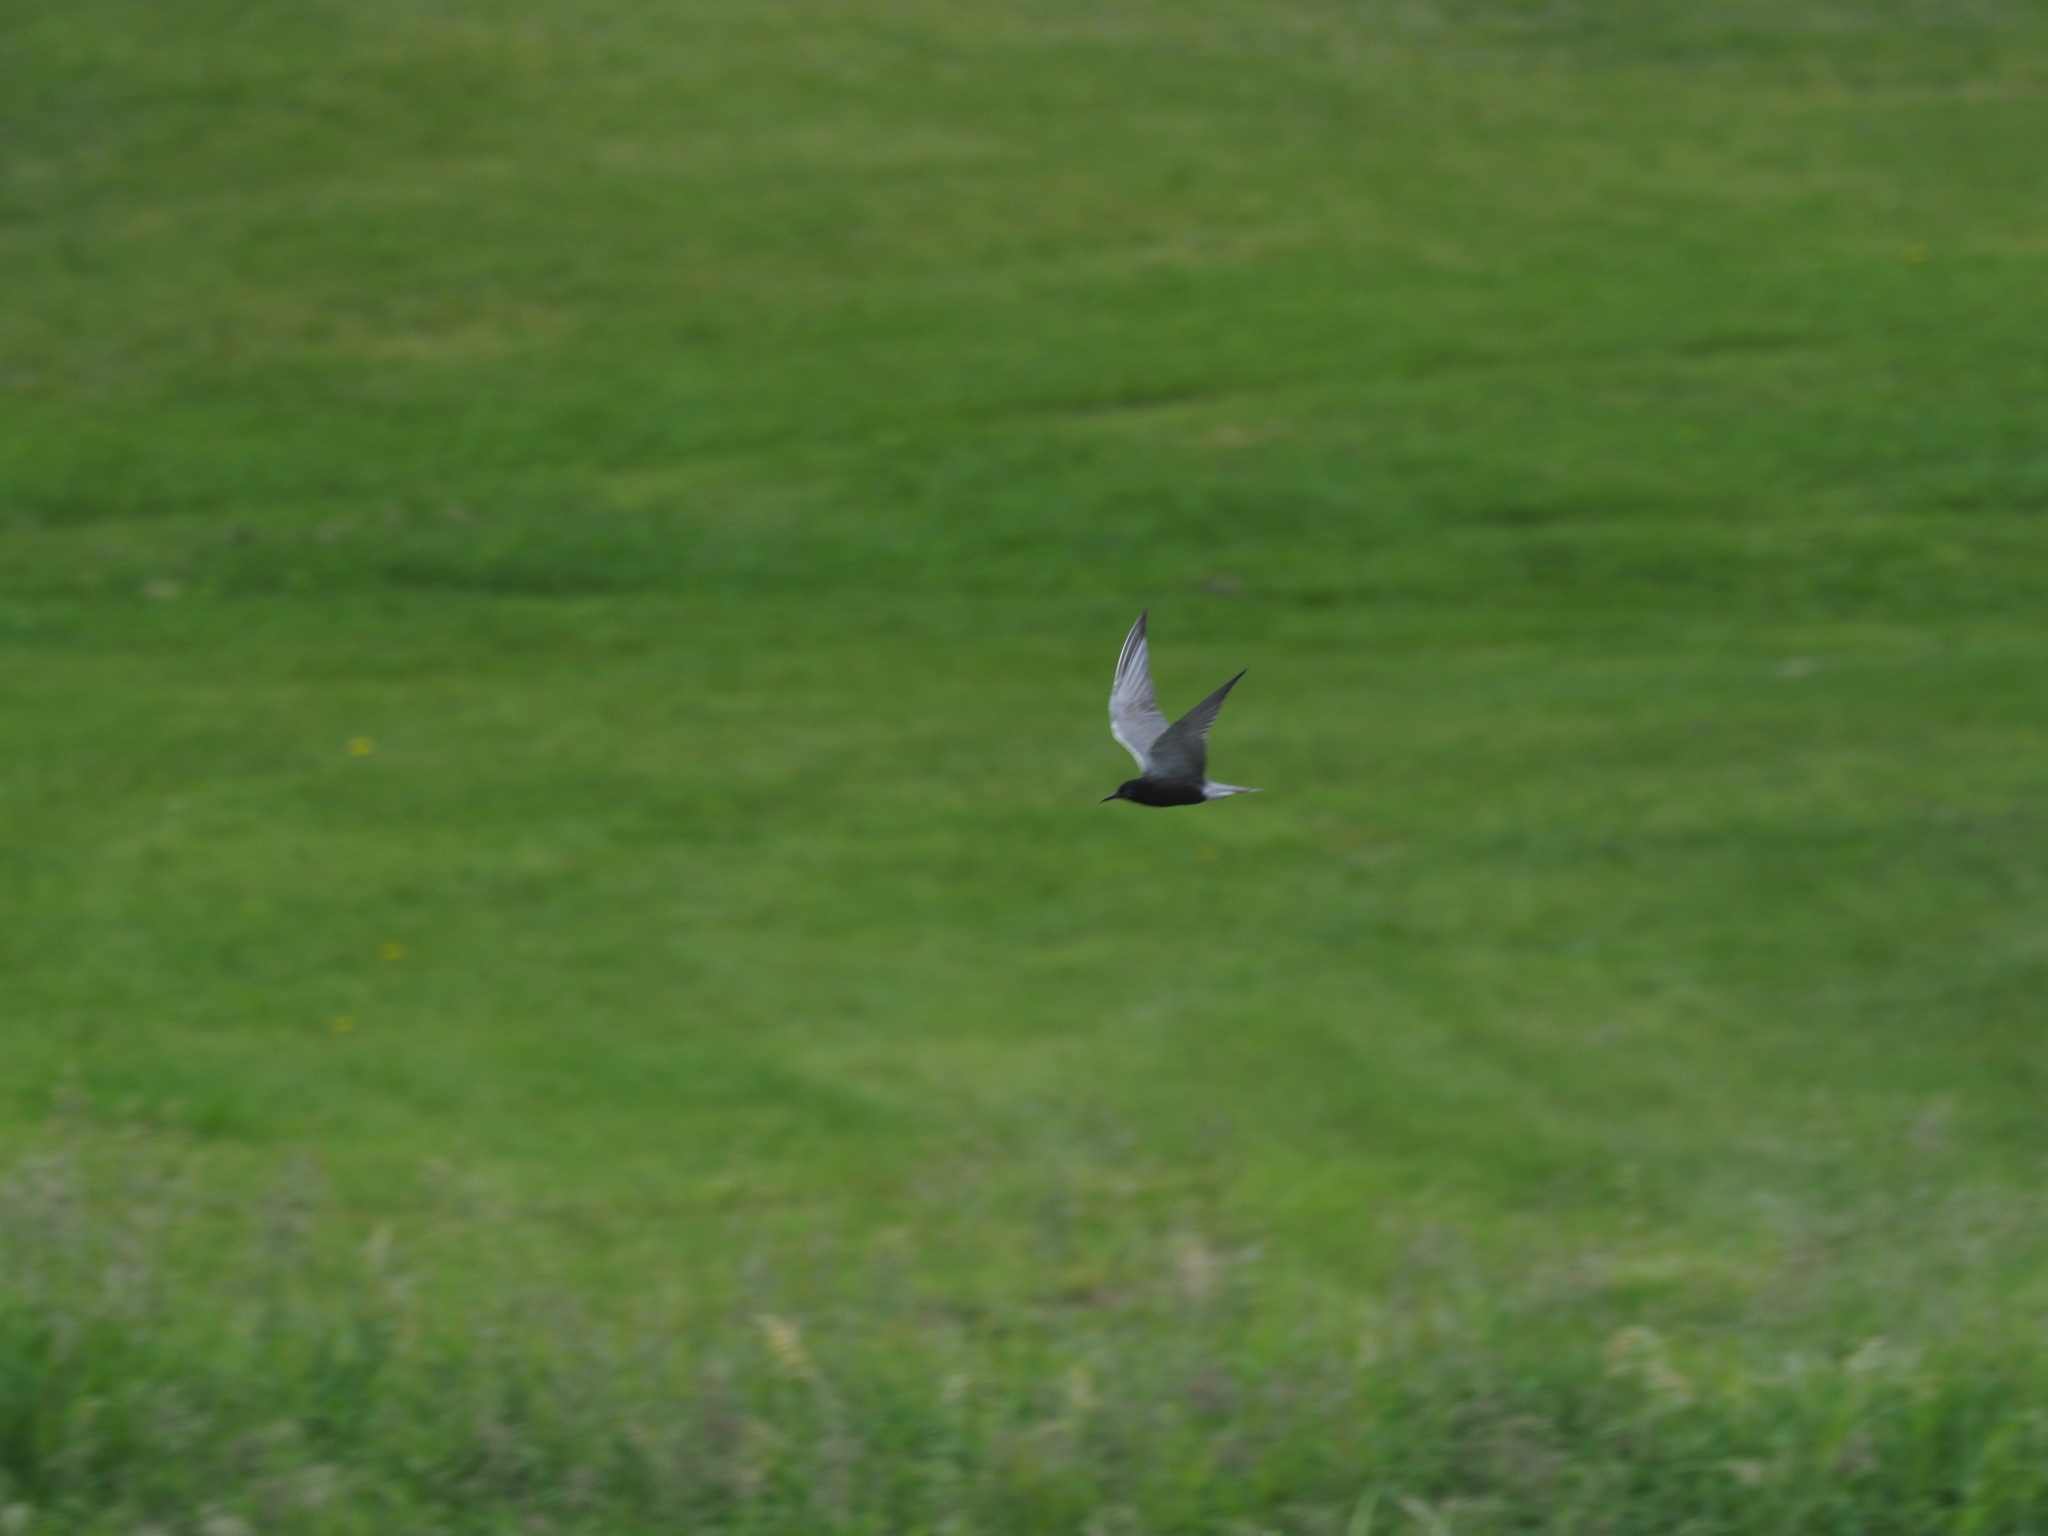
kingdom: Animalia
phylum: Chordata
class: Aves
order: Charadriiformes
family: Laridae
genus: Chlidonias
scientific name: Chlidonias niger
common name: Black tern
